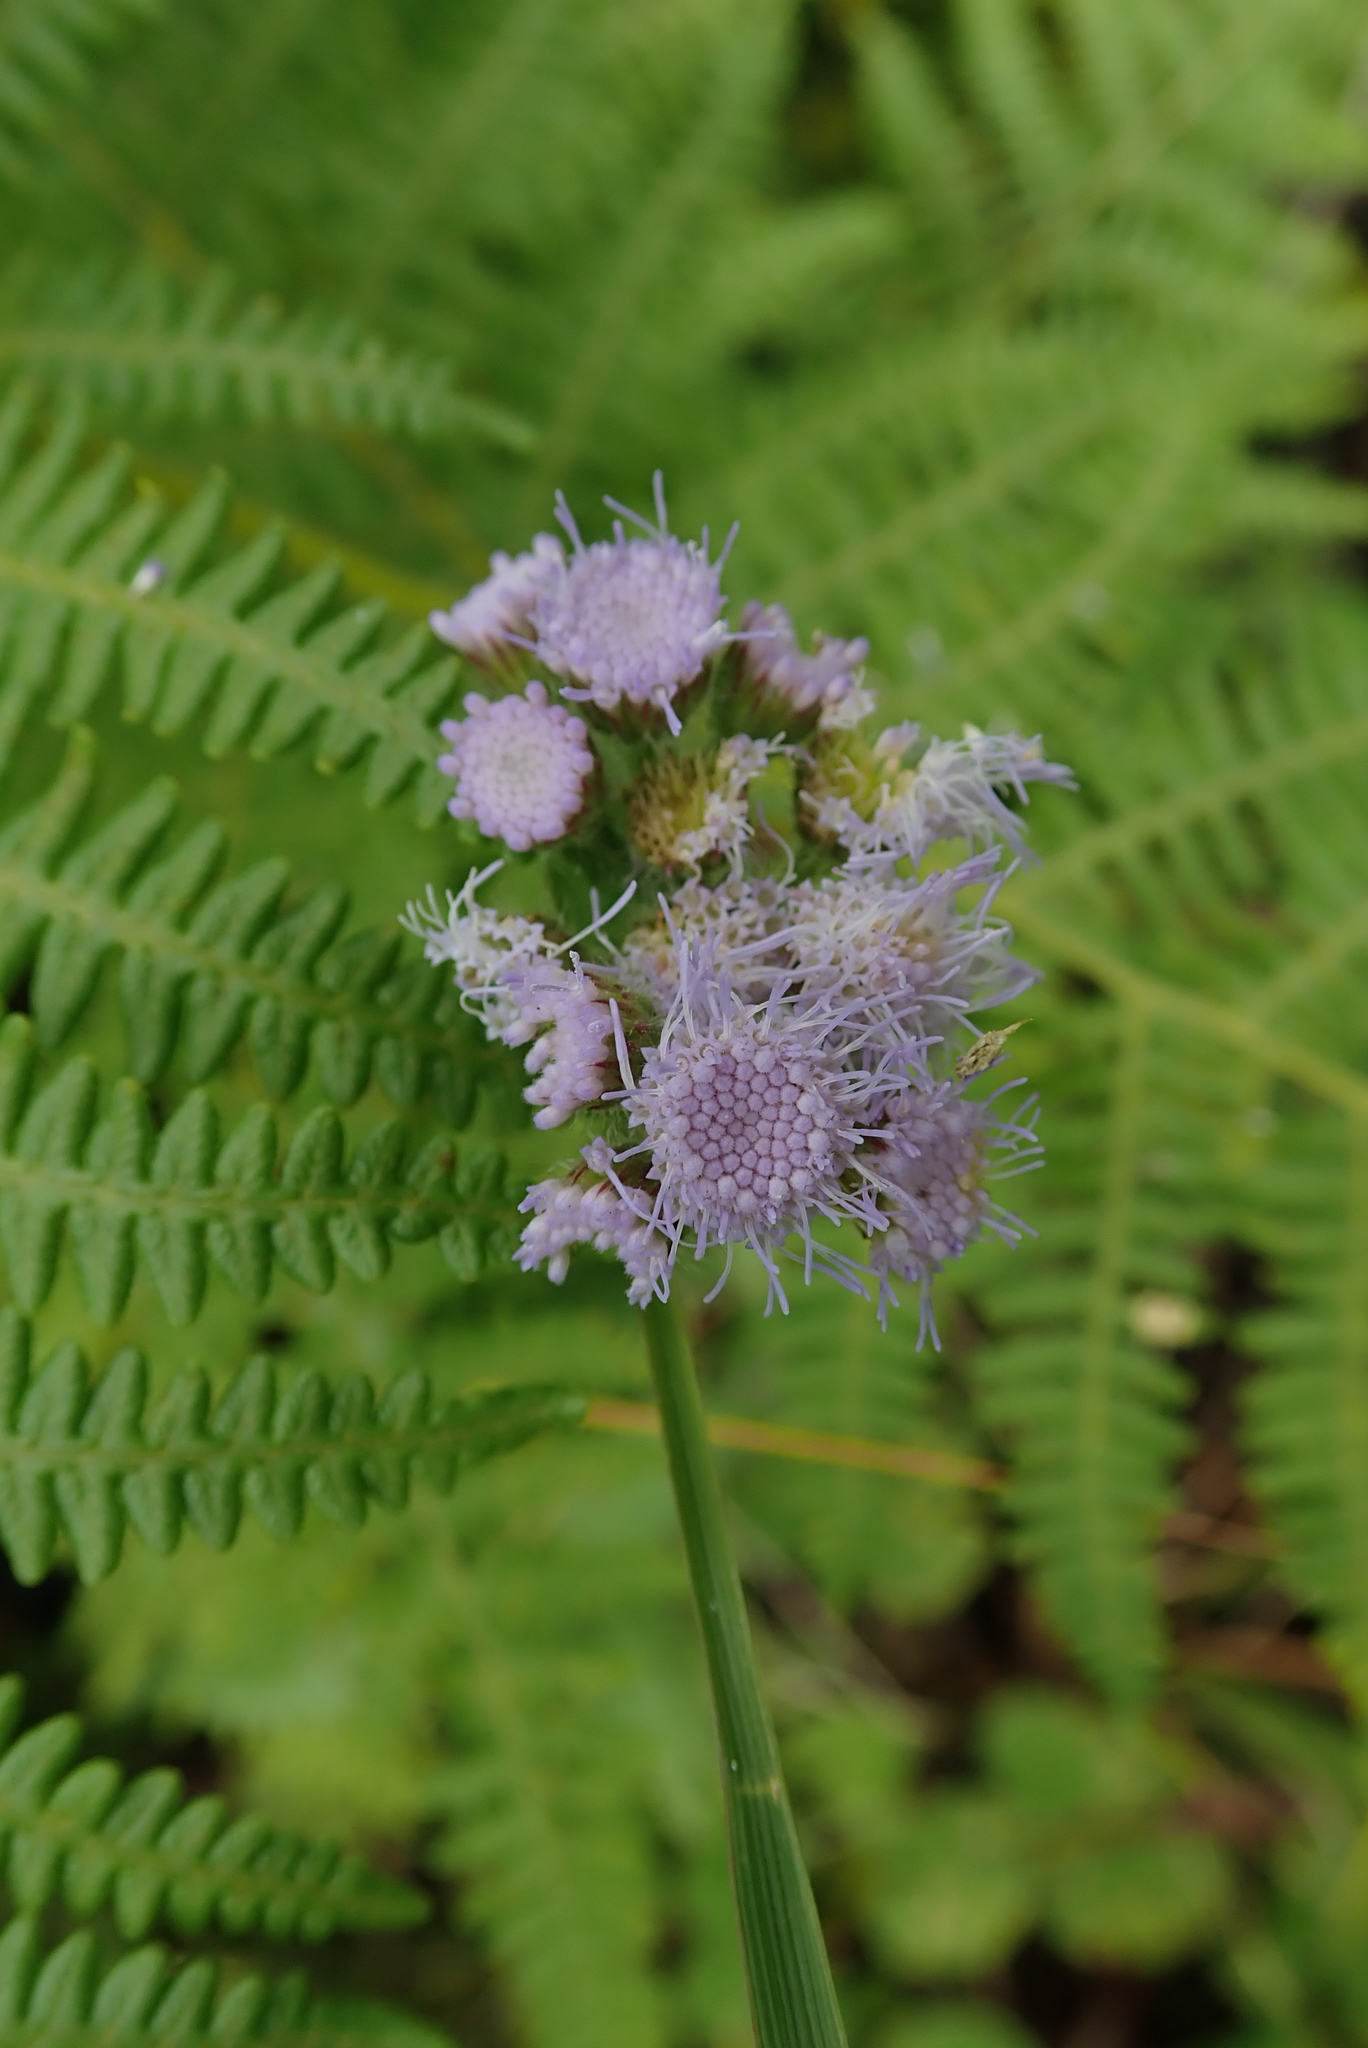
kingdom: Plantae
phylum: Tracheophyta
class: Magnoliopsida
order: Asterales
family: Asteraceae
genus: Ageratum
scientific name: Ageratum houstonianum
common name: Bluemink
